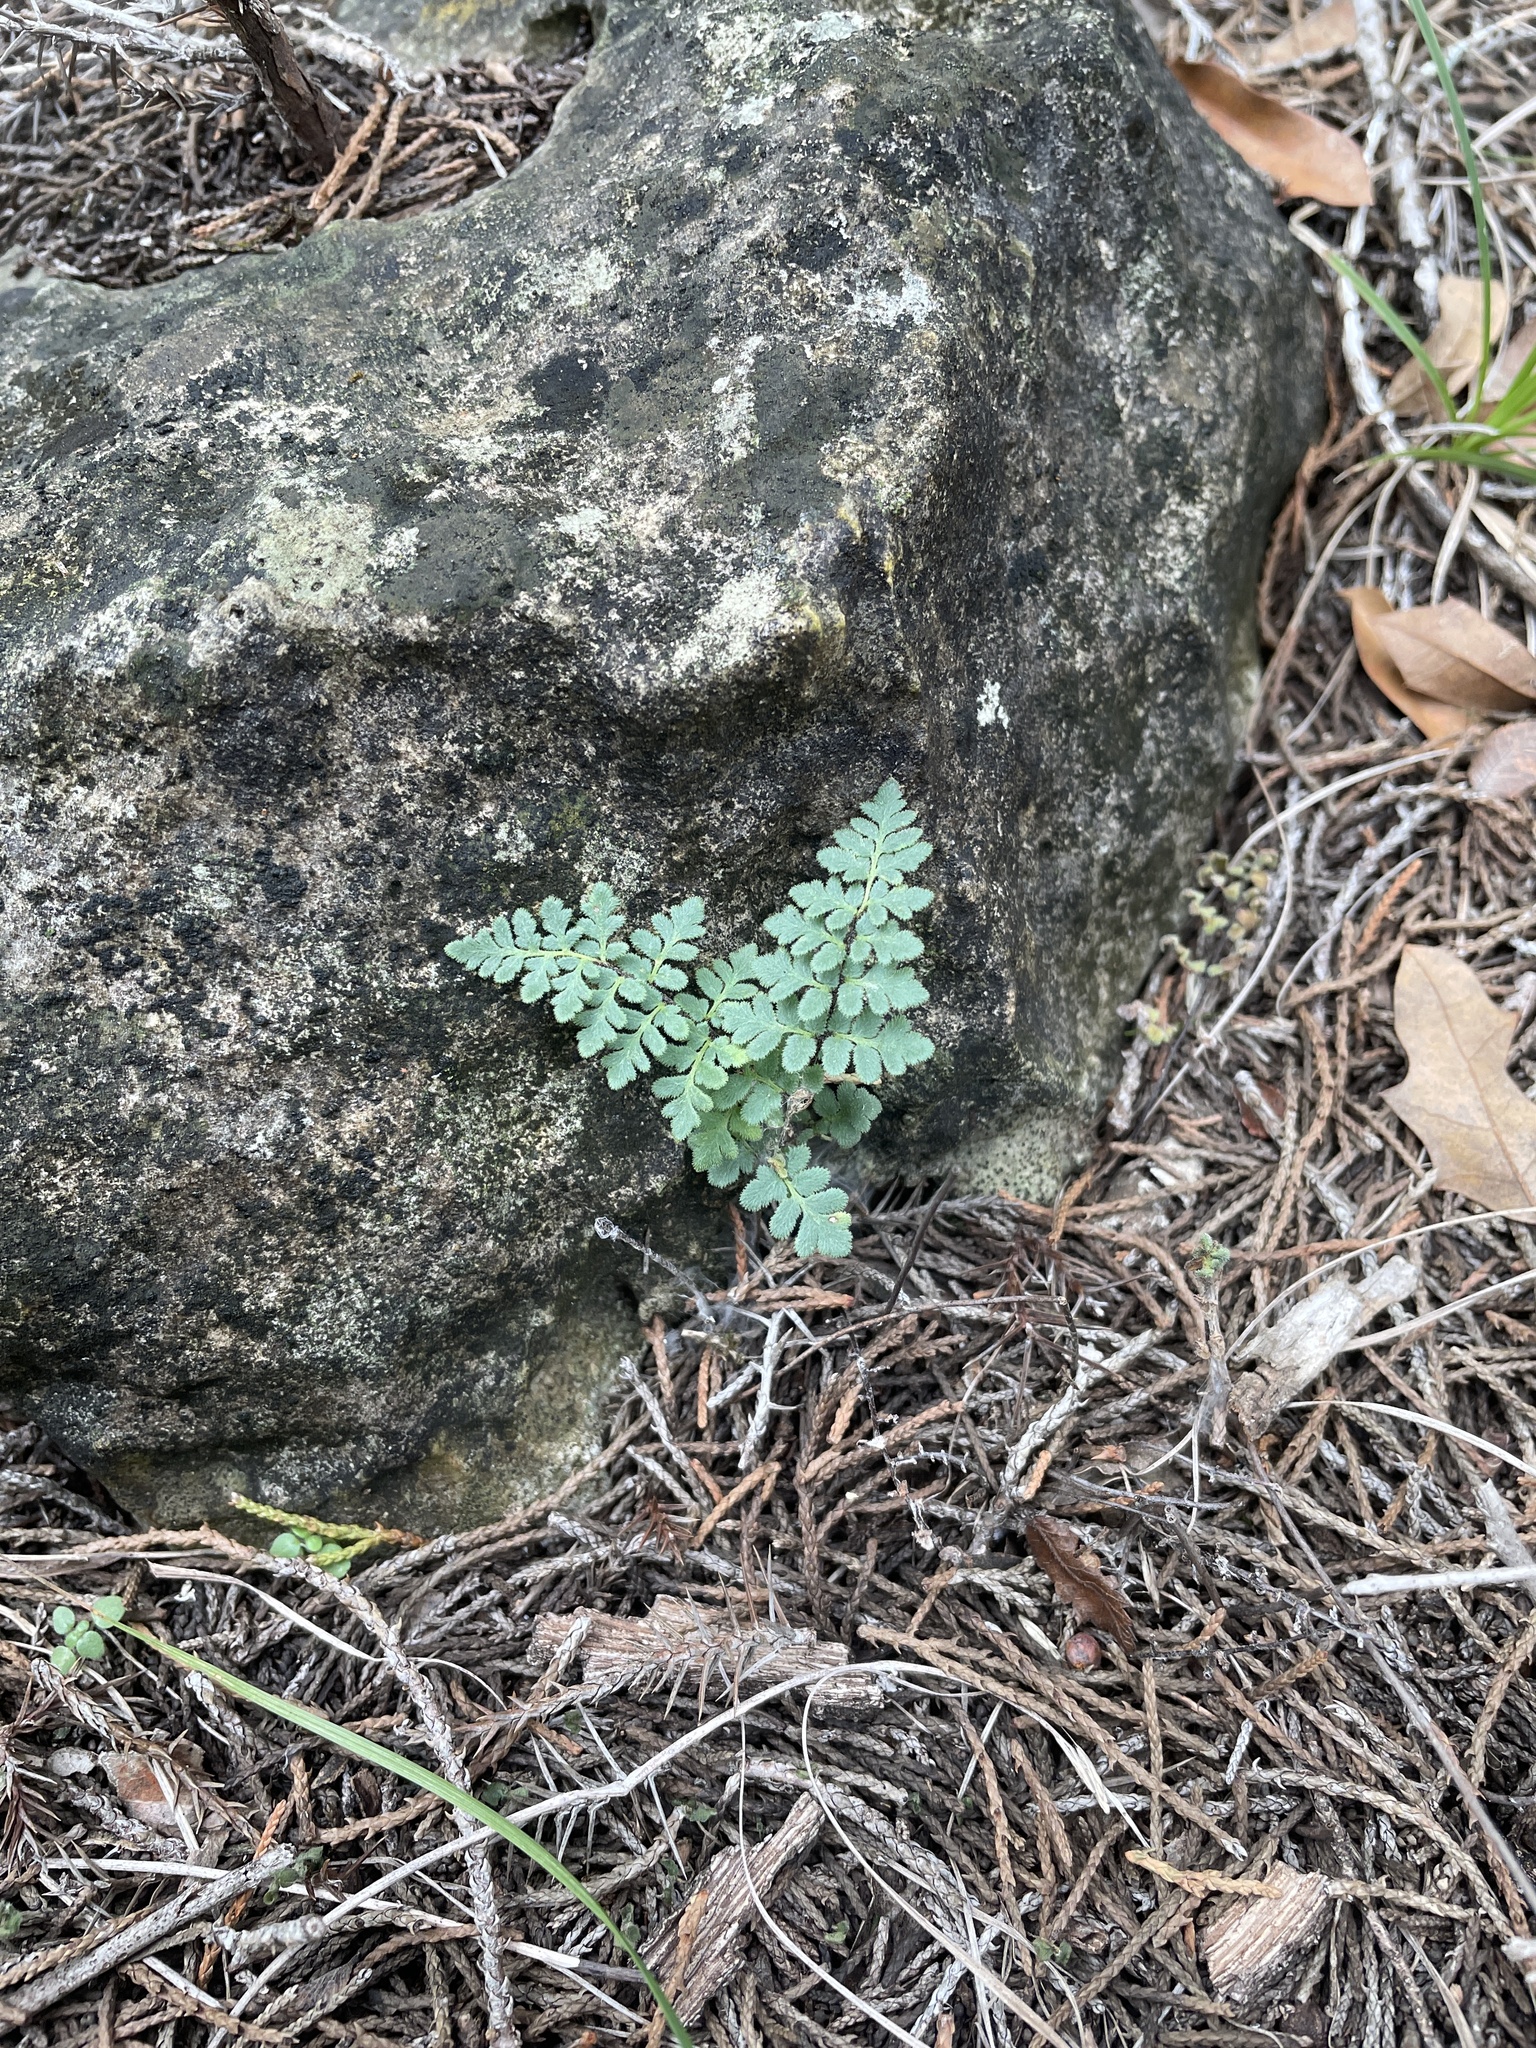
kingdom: Plantae
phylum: Tracheophyta
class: Polypodiopsida
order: Polypodiales
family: Pteridaceae
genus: Myriopteris
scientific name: Myriopteris scabra
